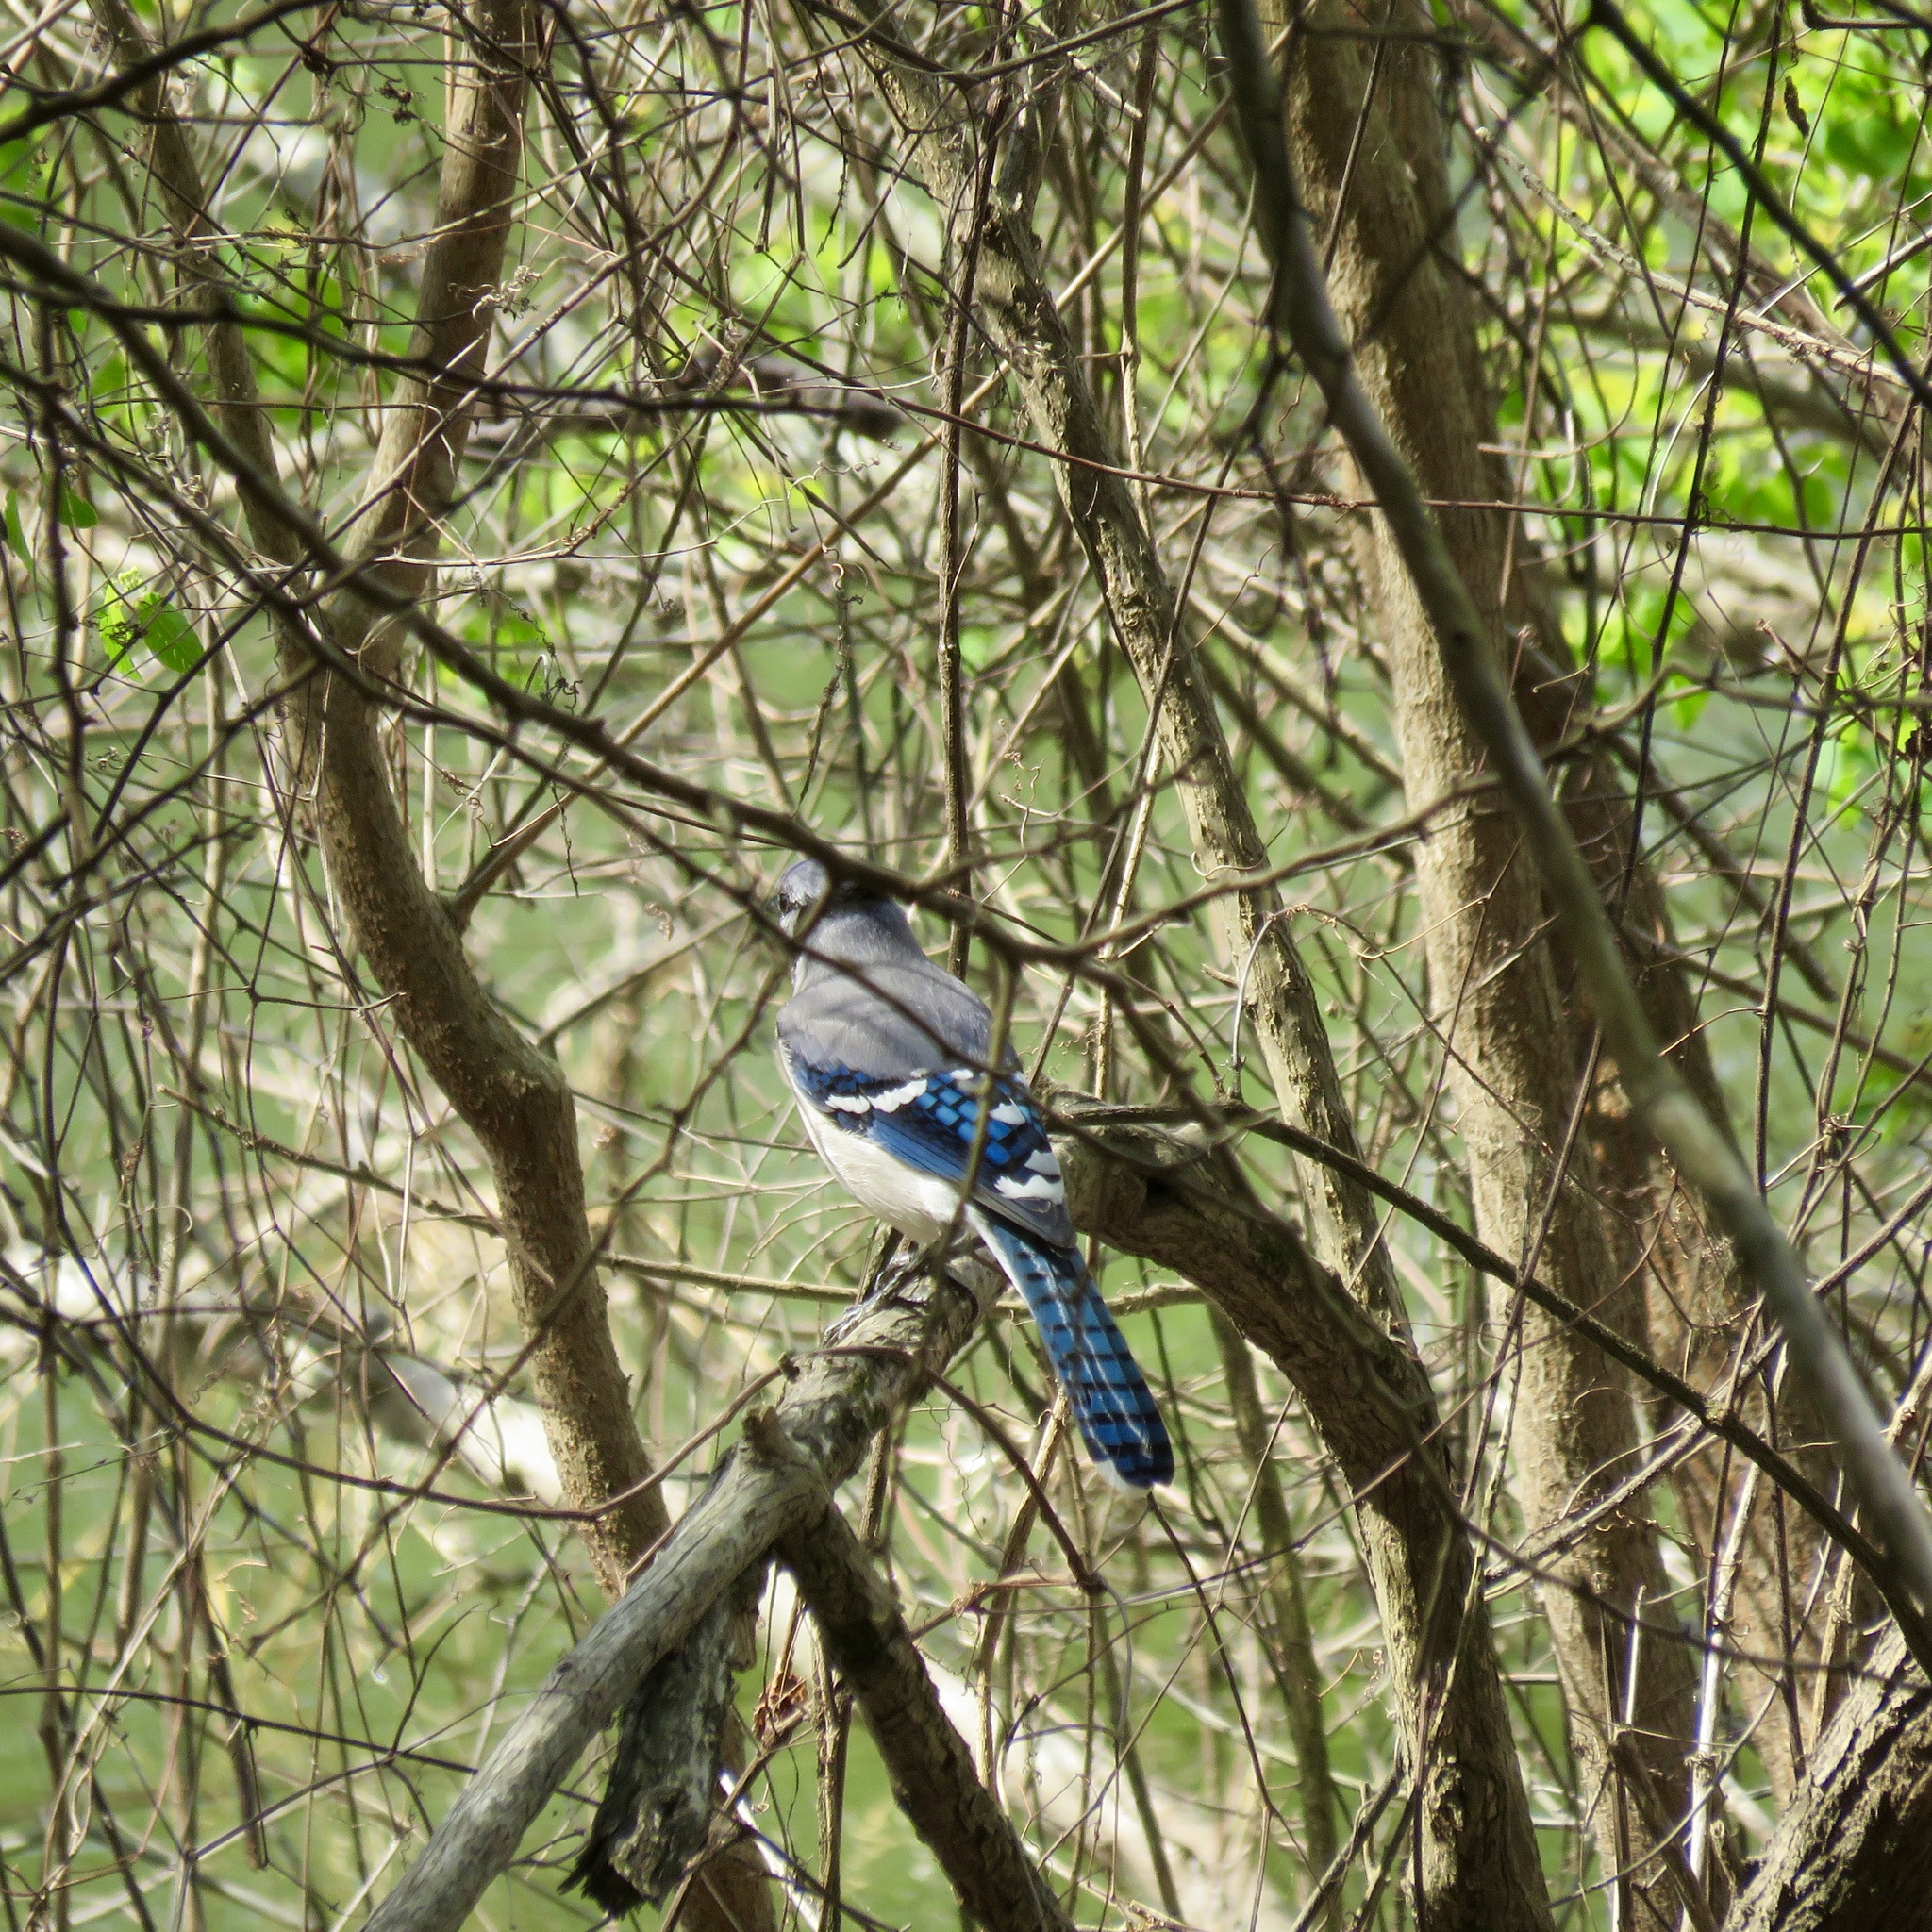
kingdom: Animalia
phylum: Chordata
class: Aves
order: Passeriformes
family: Corvidae
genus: Cyanocitta
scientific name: Cyanocitta cristata
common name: Blue jay
